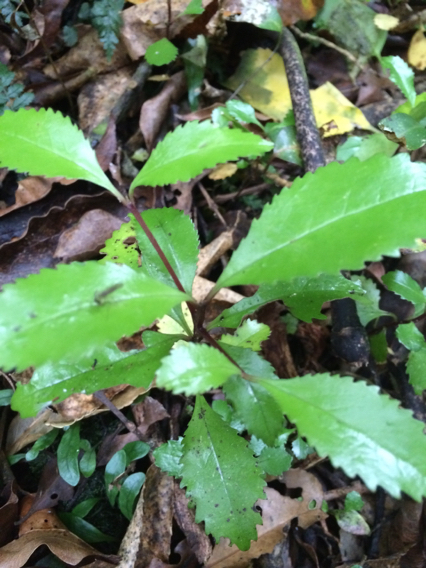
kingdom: Plantae
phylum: Tracheophyta
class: Magnoliopsida
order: Laurales
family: Atherospermataceae
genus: Laurelia
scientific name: Laurelia novae-zelandiae
